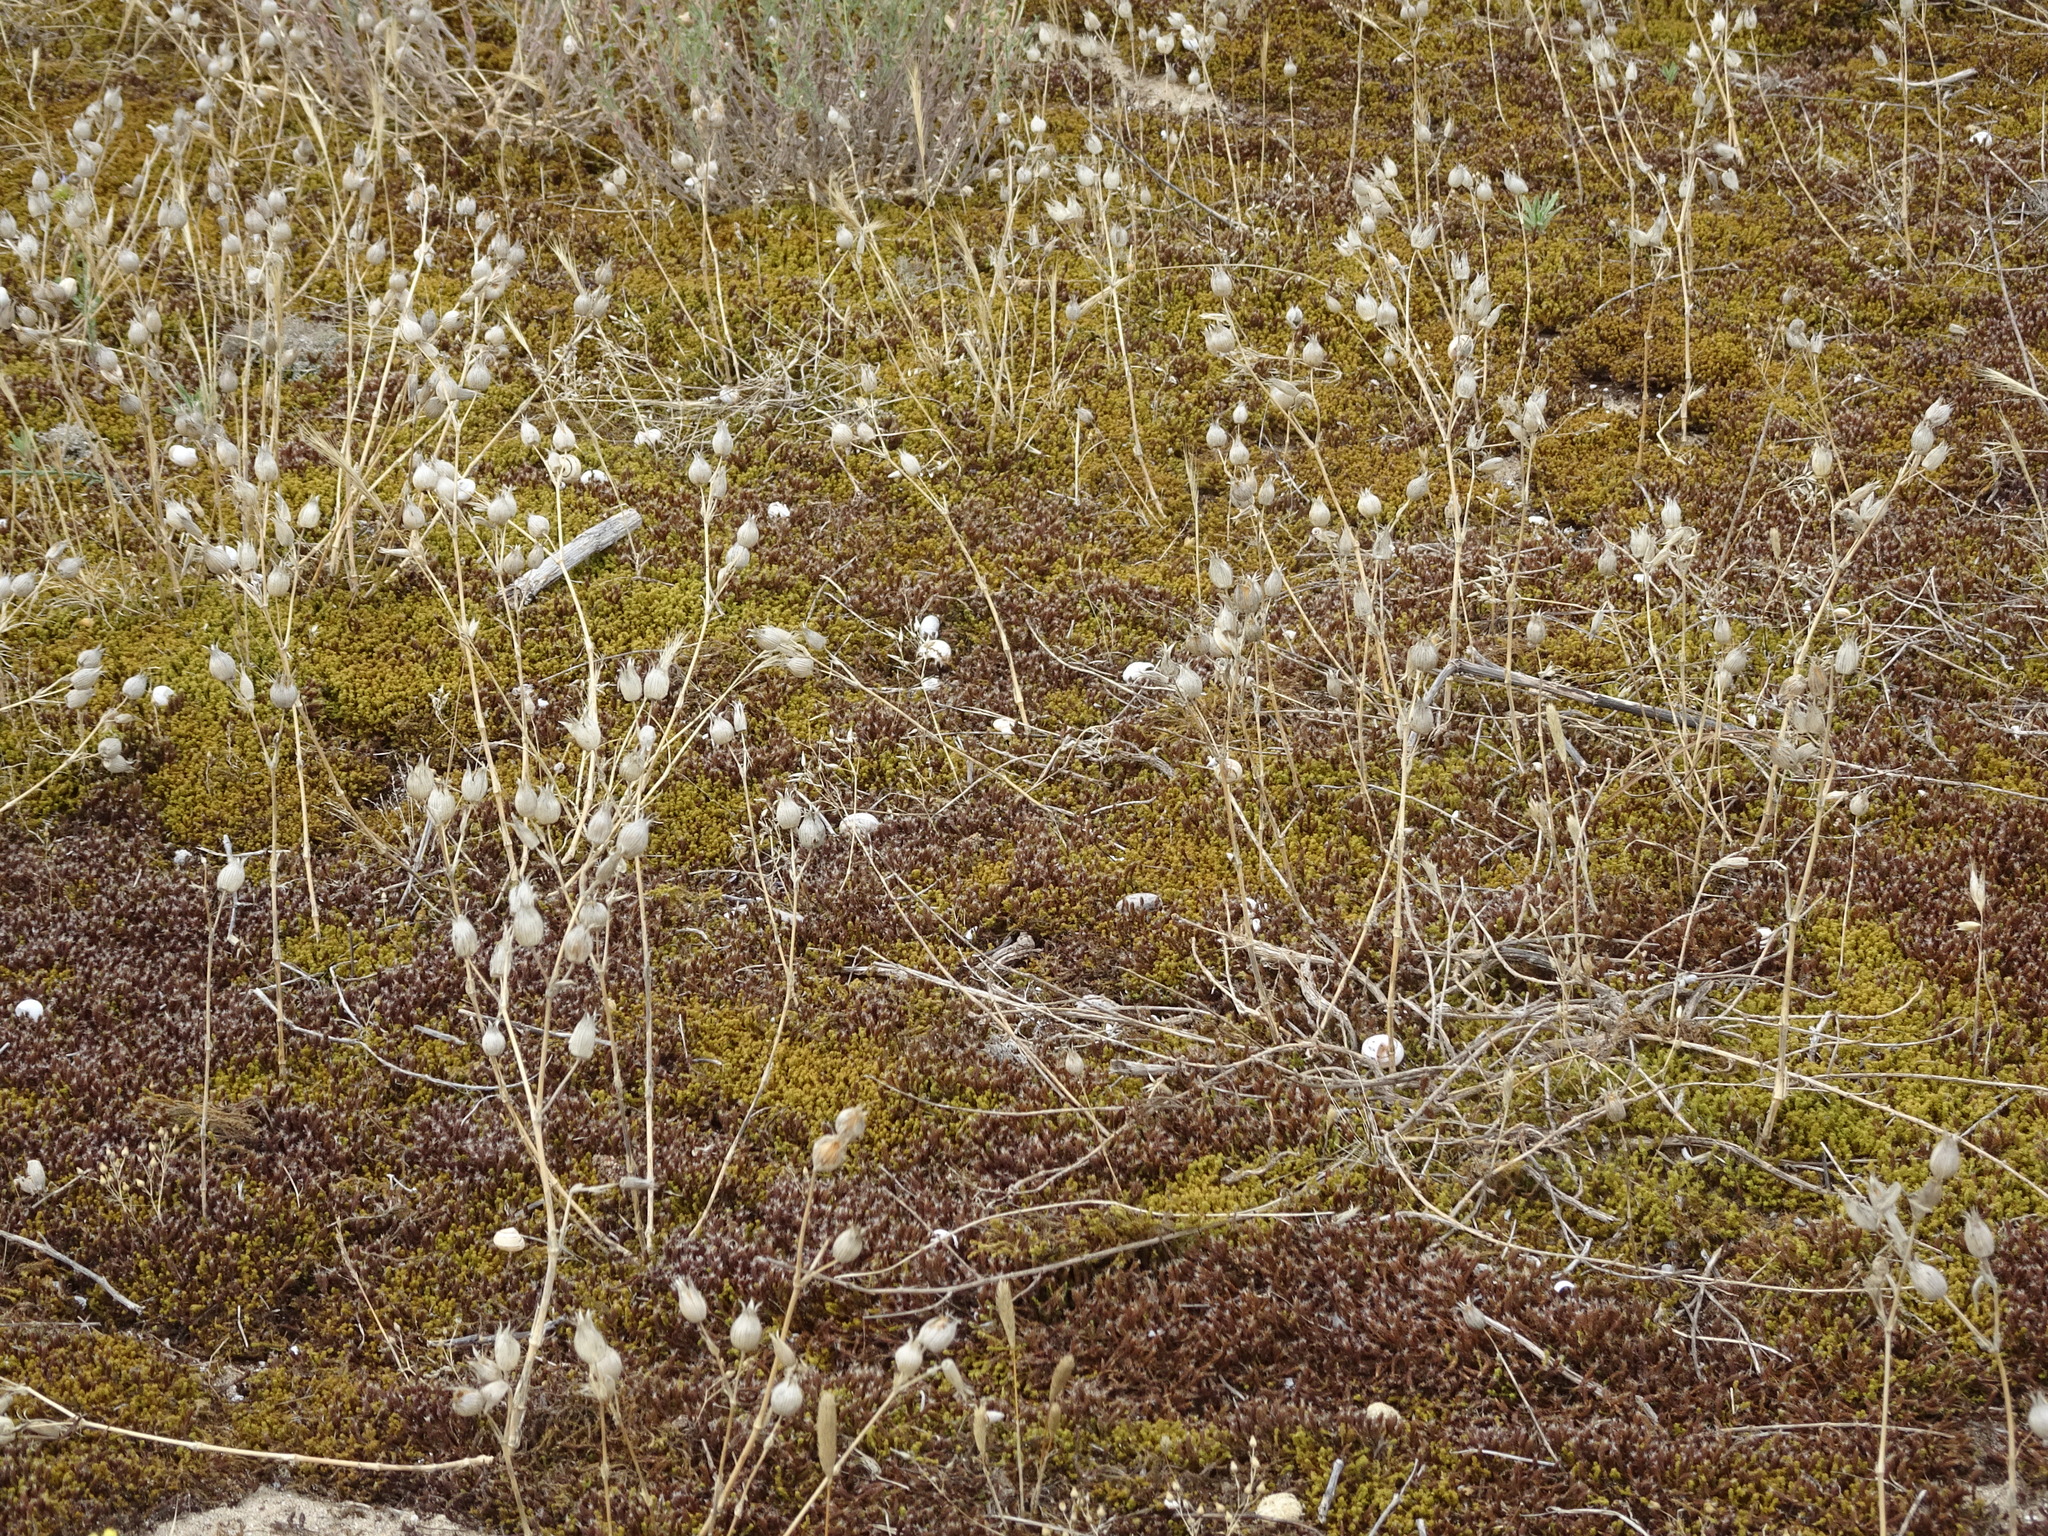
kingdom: Plantae
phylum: Tracheophyta
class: Magnoliopsida
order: Caryophyllales
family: Caryophyllaceae
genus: Silene
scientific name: Silene conica
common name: Sand catchfly
